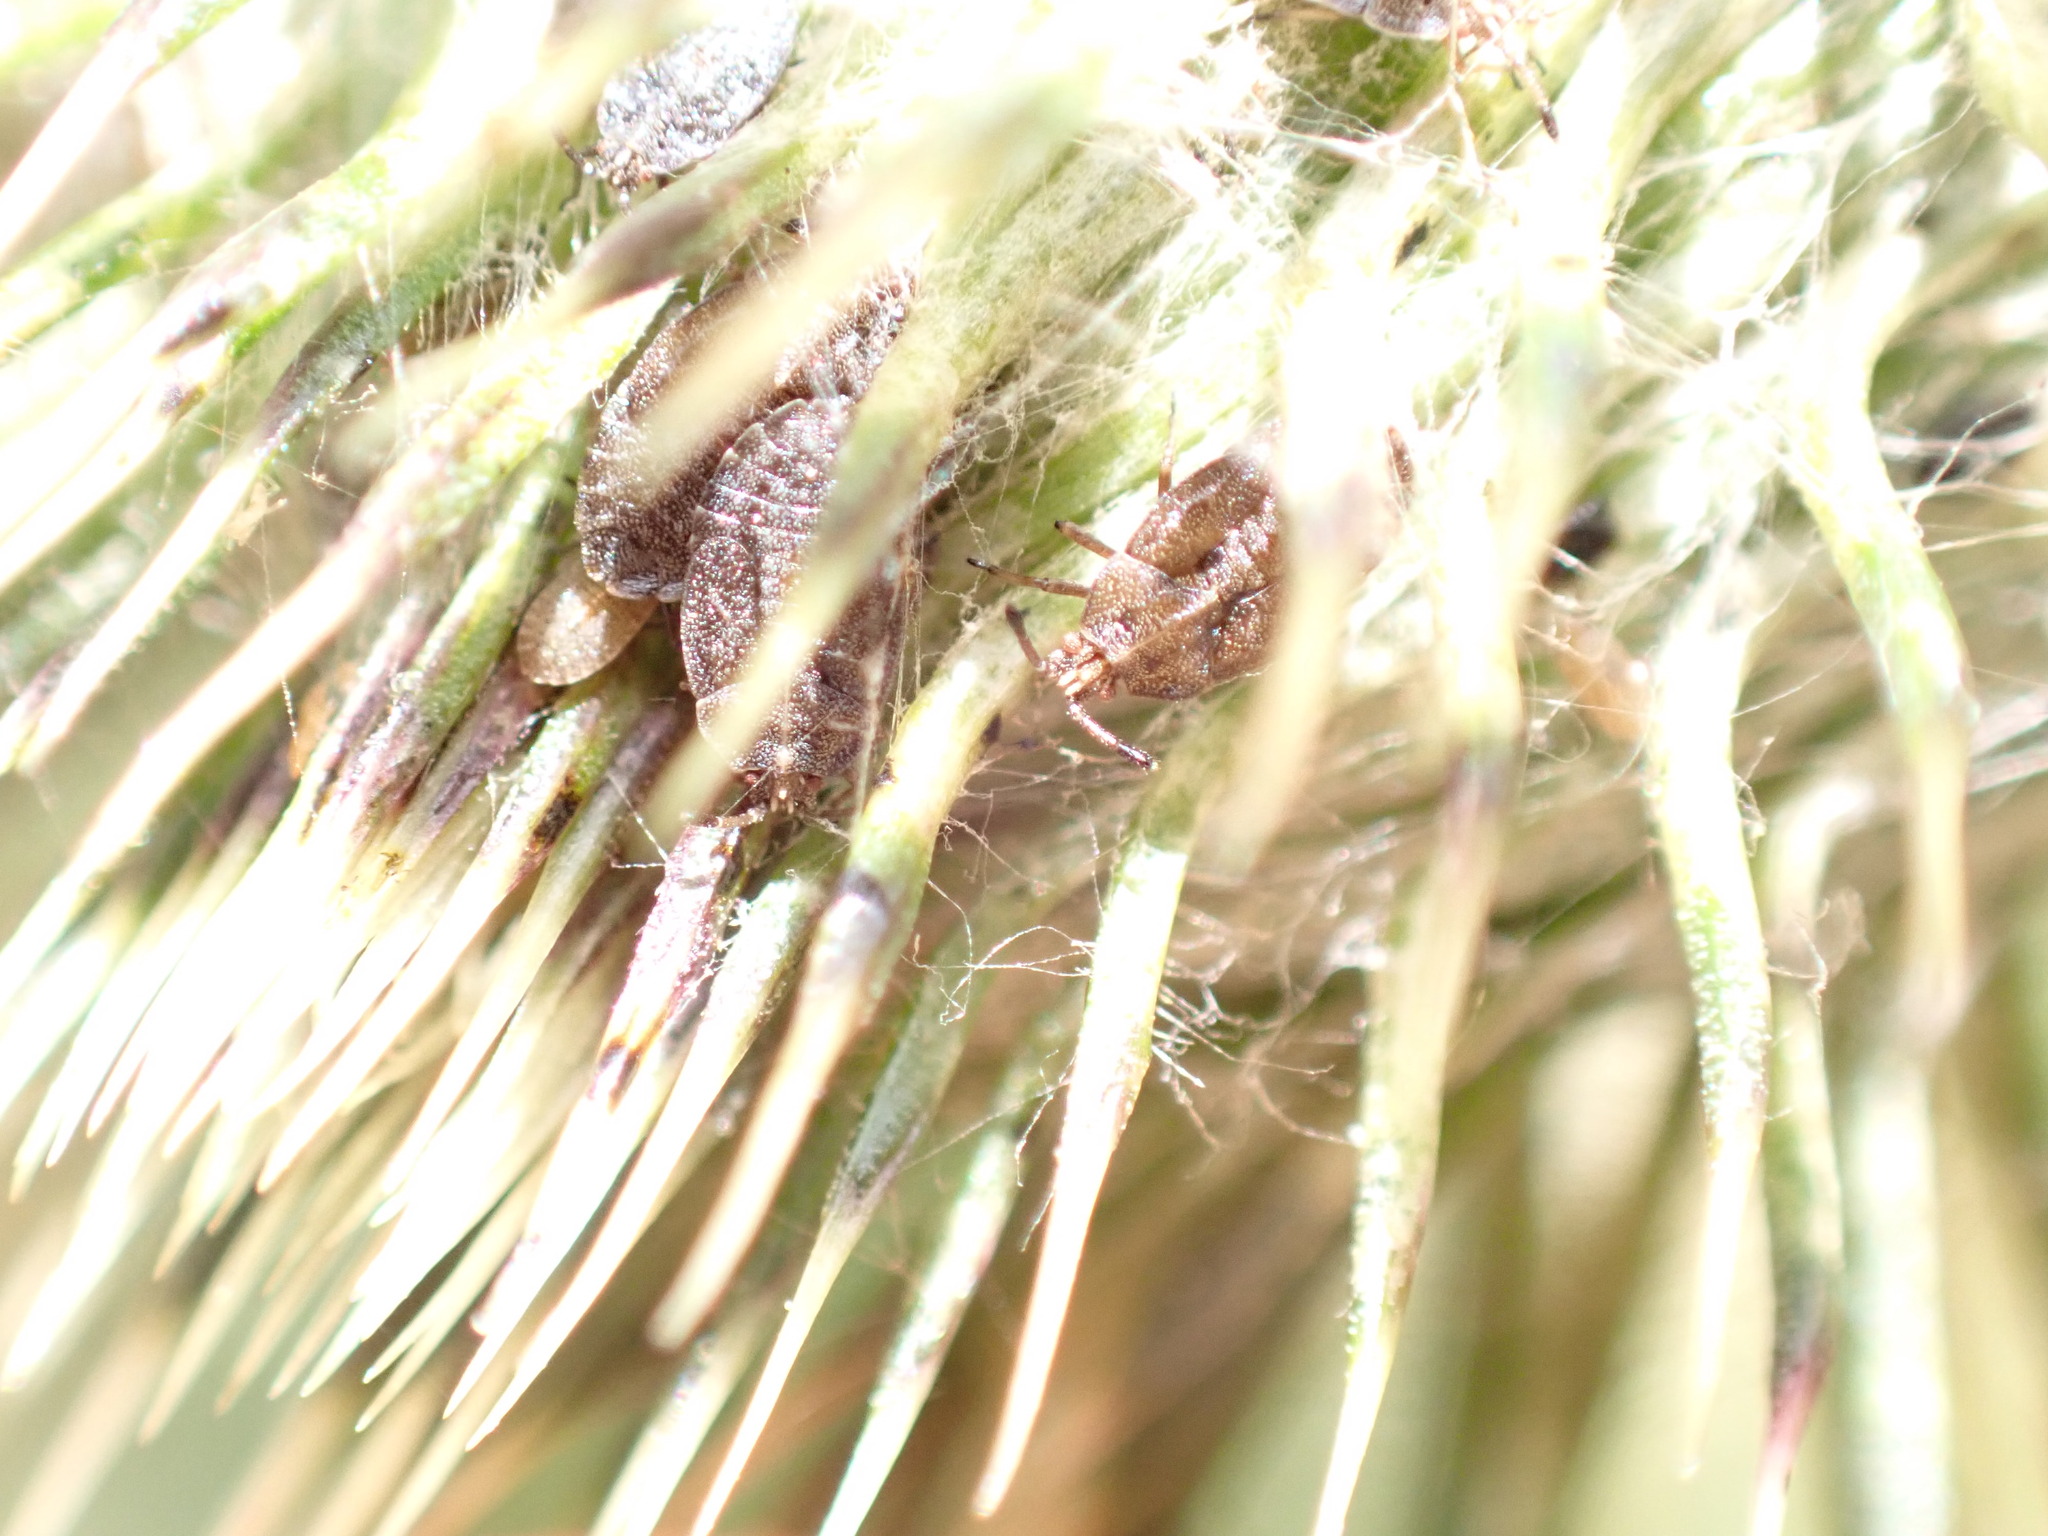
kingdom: Animalia
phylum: Arthropoda
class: Insecta
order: Hemiptera
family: Tingidae
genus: Tingis
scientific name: Tingis cardui
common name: Spear thistle lacebug
